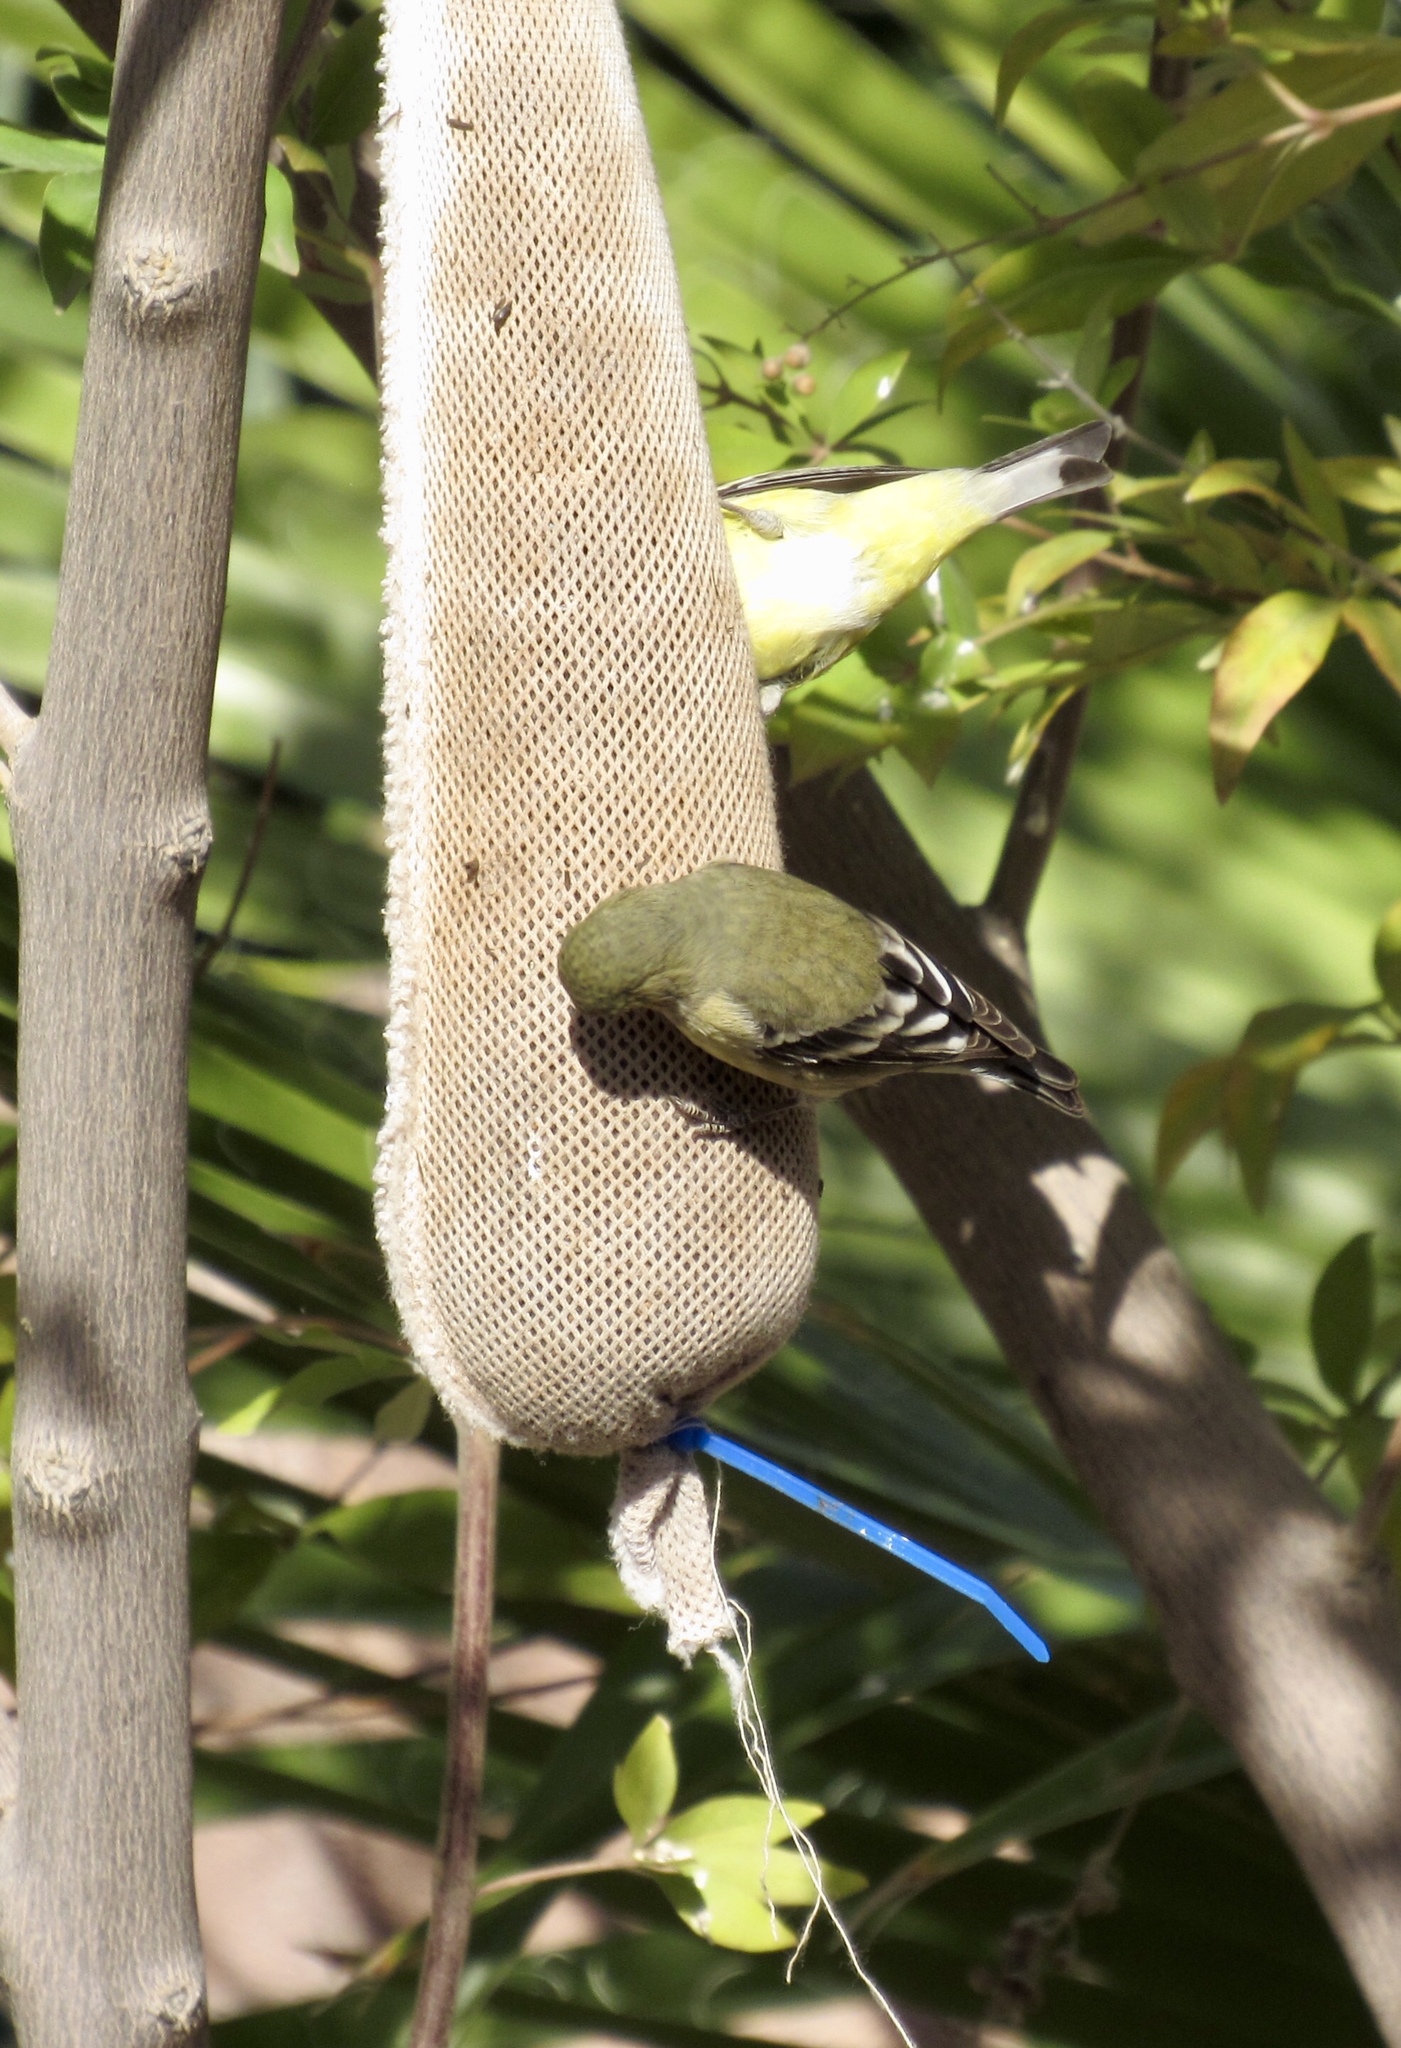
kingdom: Animalia
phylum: Chordata
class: Aves
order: Passeriformes
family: Fringillidae
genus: Spinus
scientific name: Spinus psaltria
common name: Lesser goldfinch
